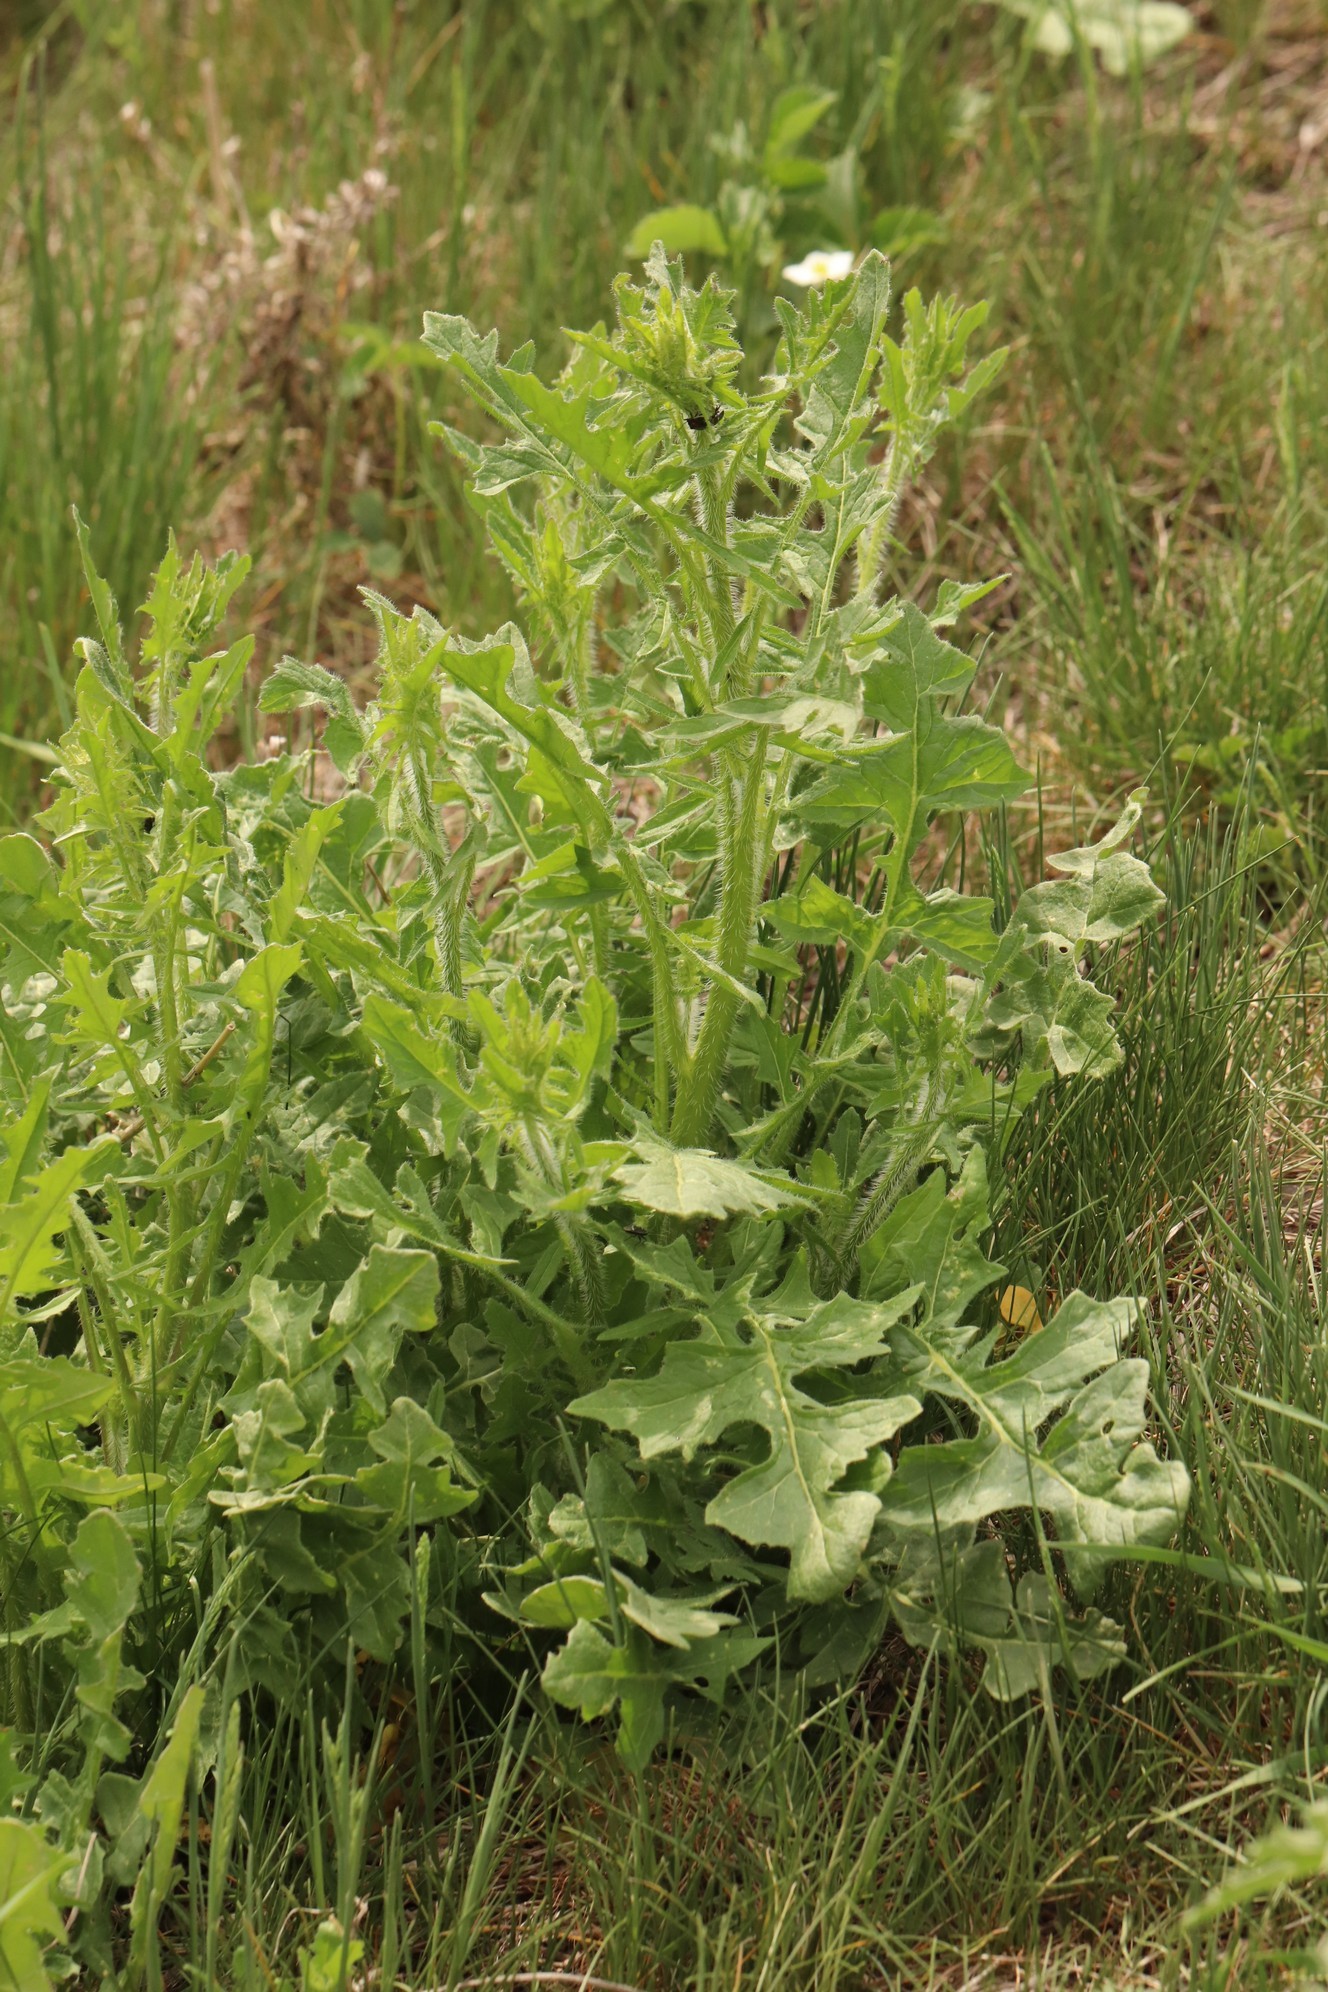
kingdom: Plantae
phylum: Tracheophyta
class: Magnoliopsida
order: Brassicales
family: Brassicaceae
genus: Sisymbrium
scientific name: Sisymbrium loeselii
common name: False london-rocket
